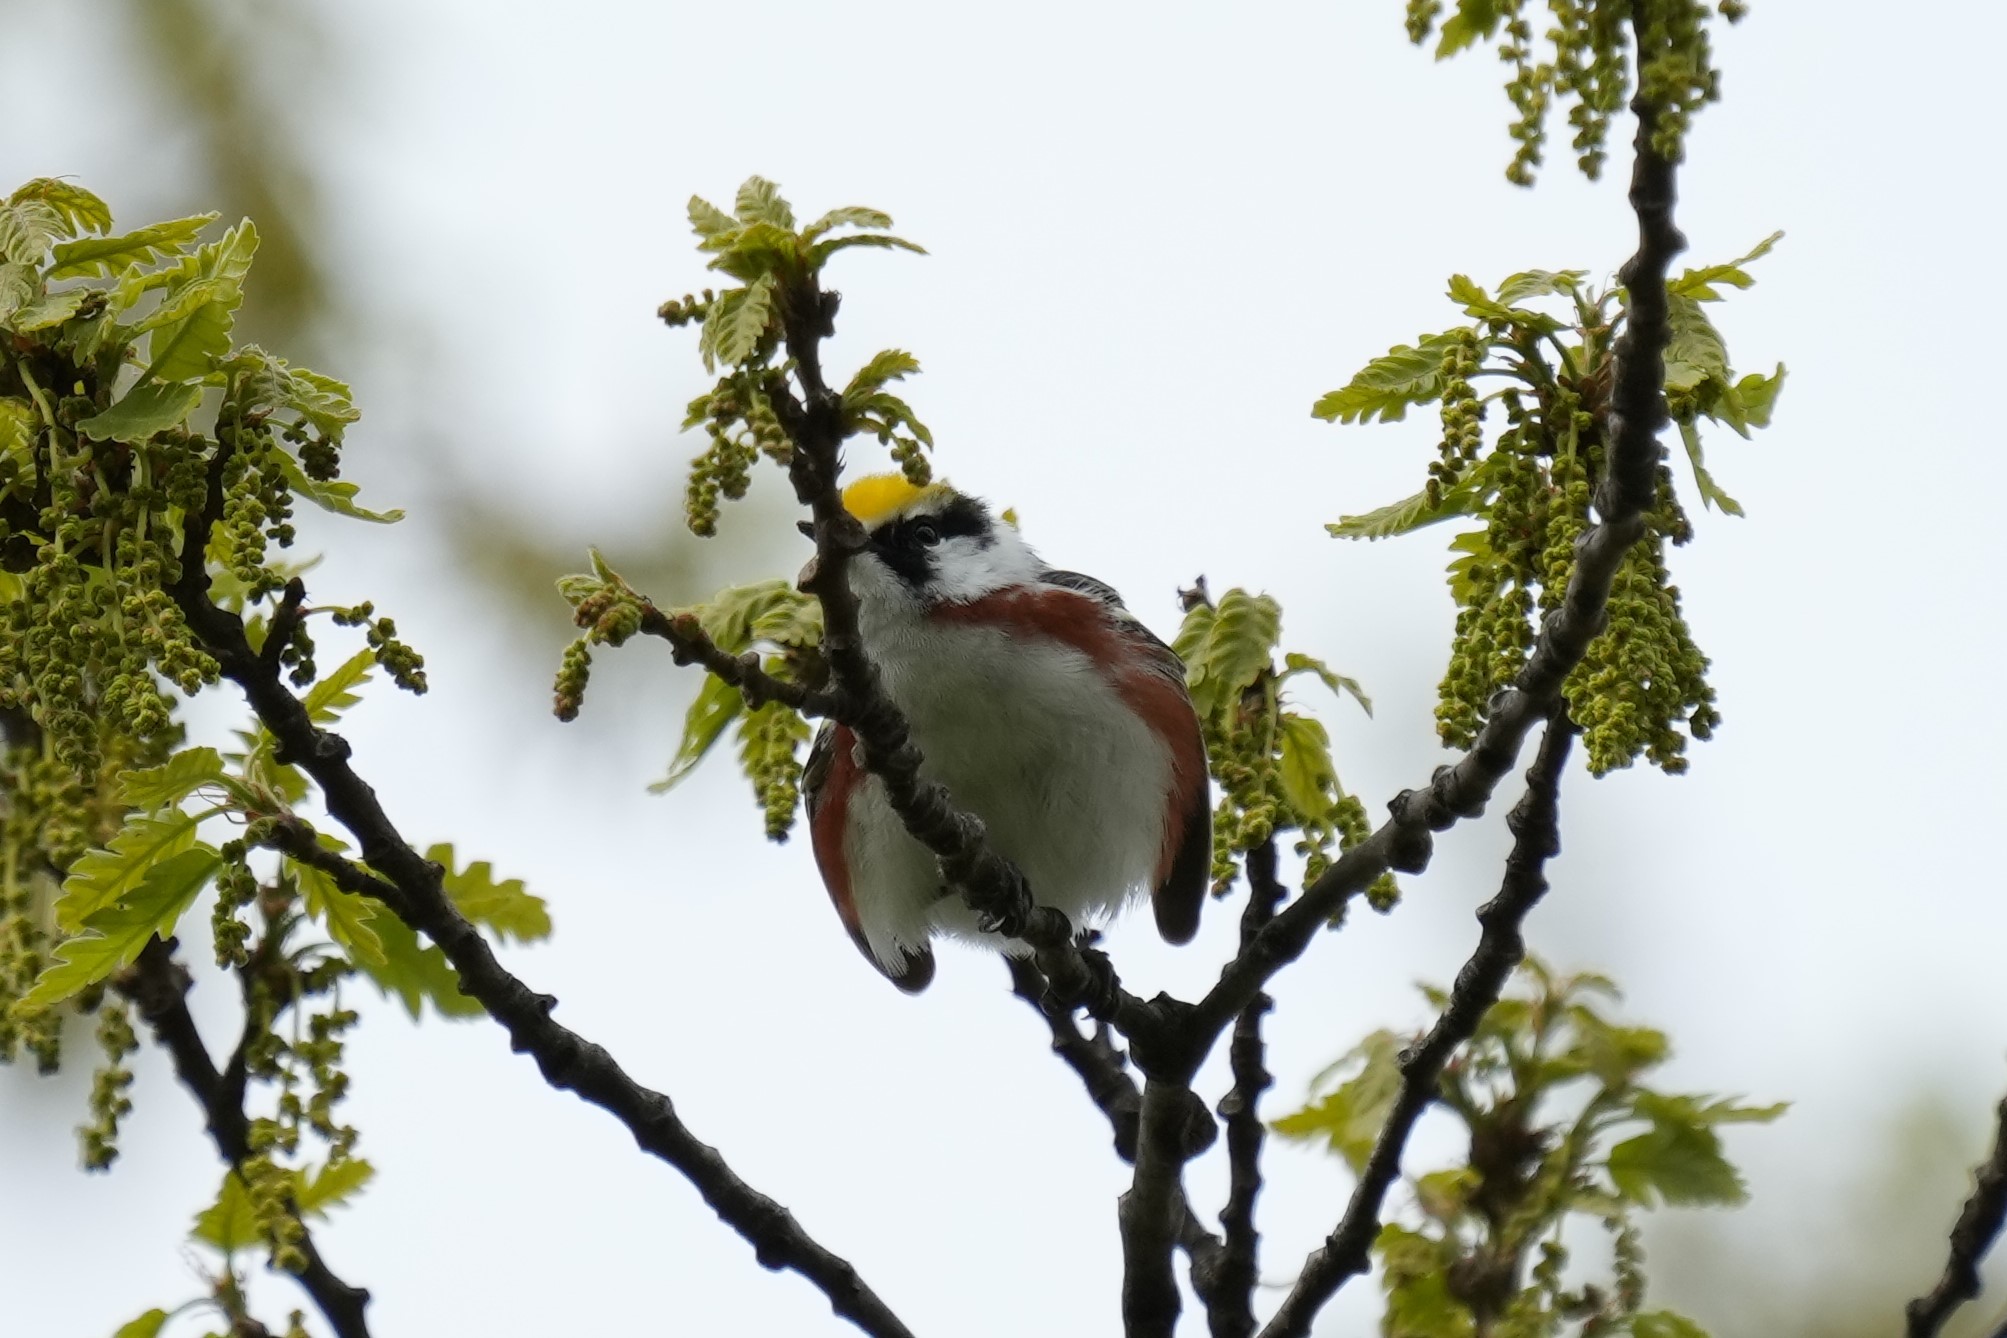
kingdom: Animalia
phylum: Chordata
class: Aves
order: Passeriformes
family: Parulidae
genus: Setophaga
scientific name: Setophaga pensylvanica
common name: Chestnut-sided warbler
